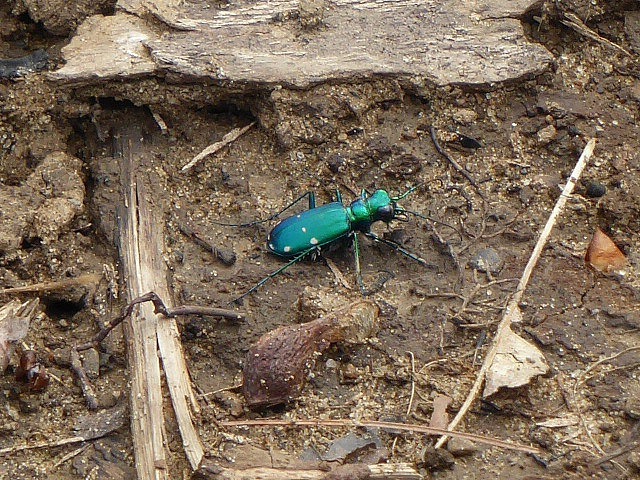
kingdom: Animalia
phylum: Arthropoda
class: Insecta
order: Coleoptera
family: Carabidae
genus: Cicindela
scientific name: Cicindela sexguttata
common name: Six-spotted tiger beetle
